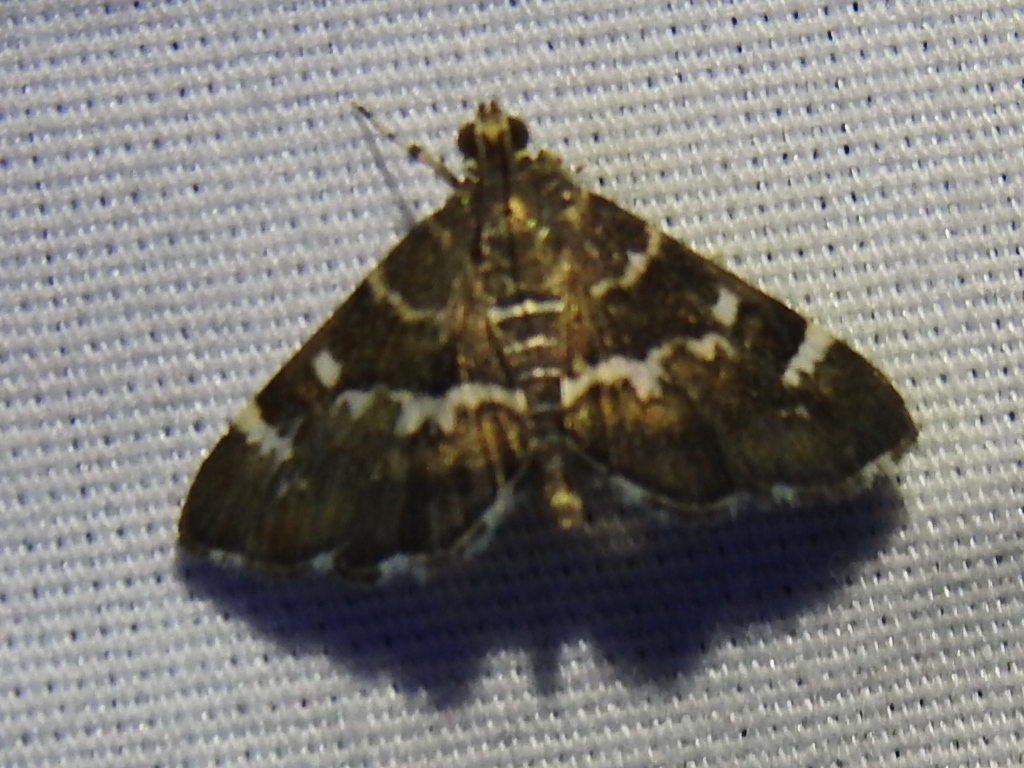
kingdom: Animalia
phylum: Arthropoda
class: Insecta
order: Lepidoptera
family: Crambidae
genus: Hymenia
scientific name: Hymenia perspectalis
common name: Spotted beet webworm
